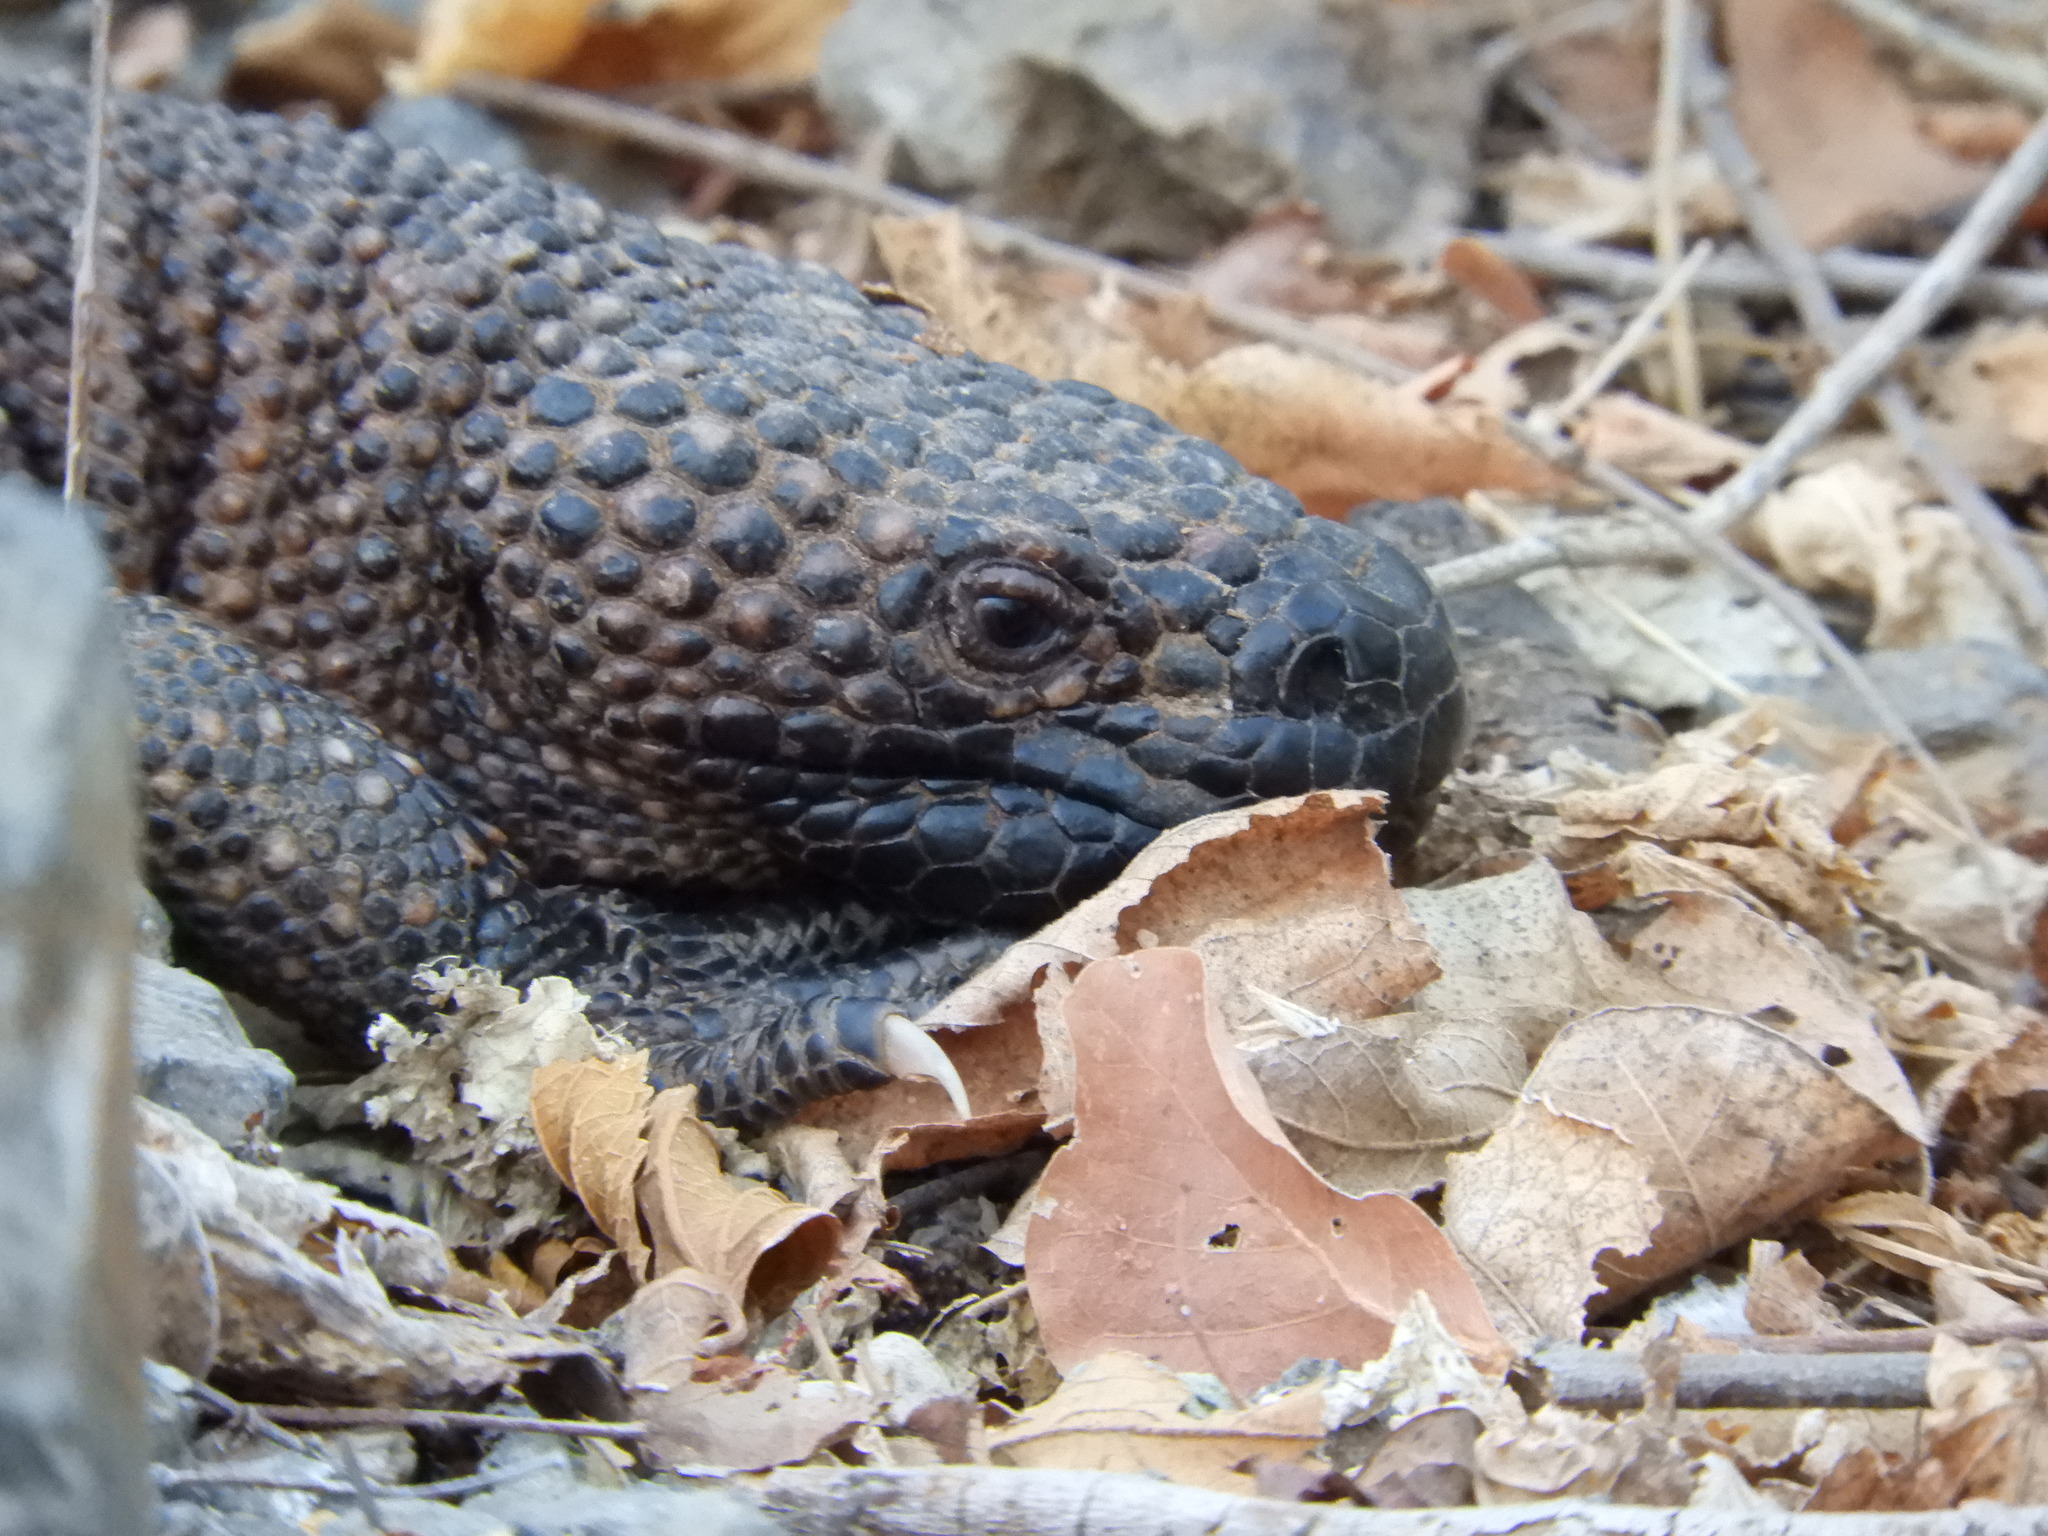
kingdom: Animalia
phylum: Chordata
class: Squamata
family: Helodermatidae
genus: Heloderma
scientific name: Heloderma horridum
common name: Mexican beaded lizard
